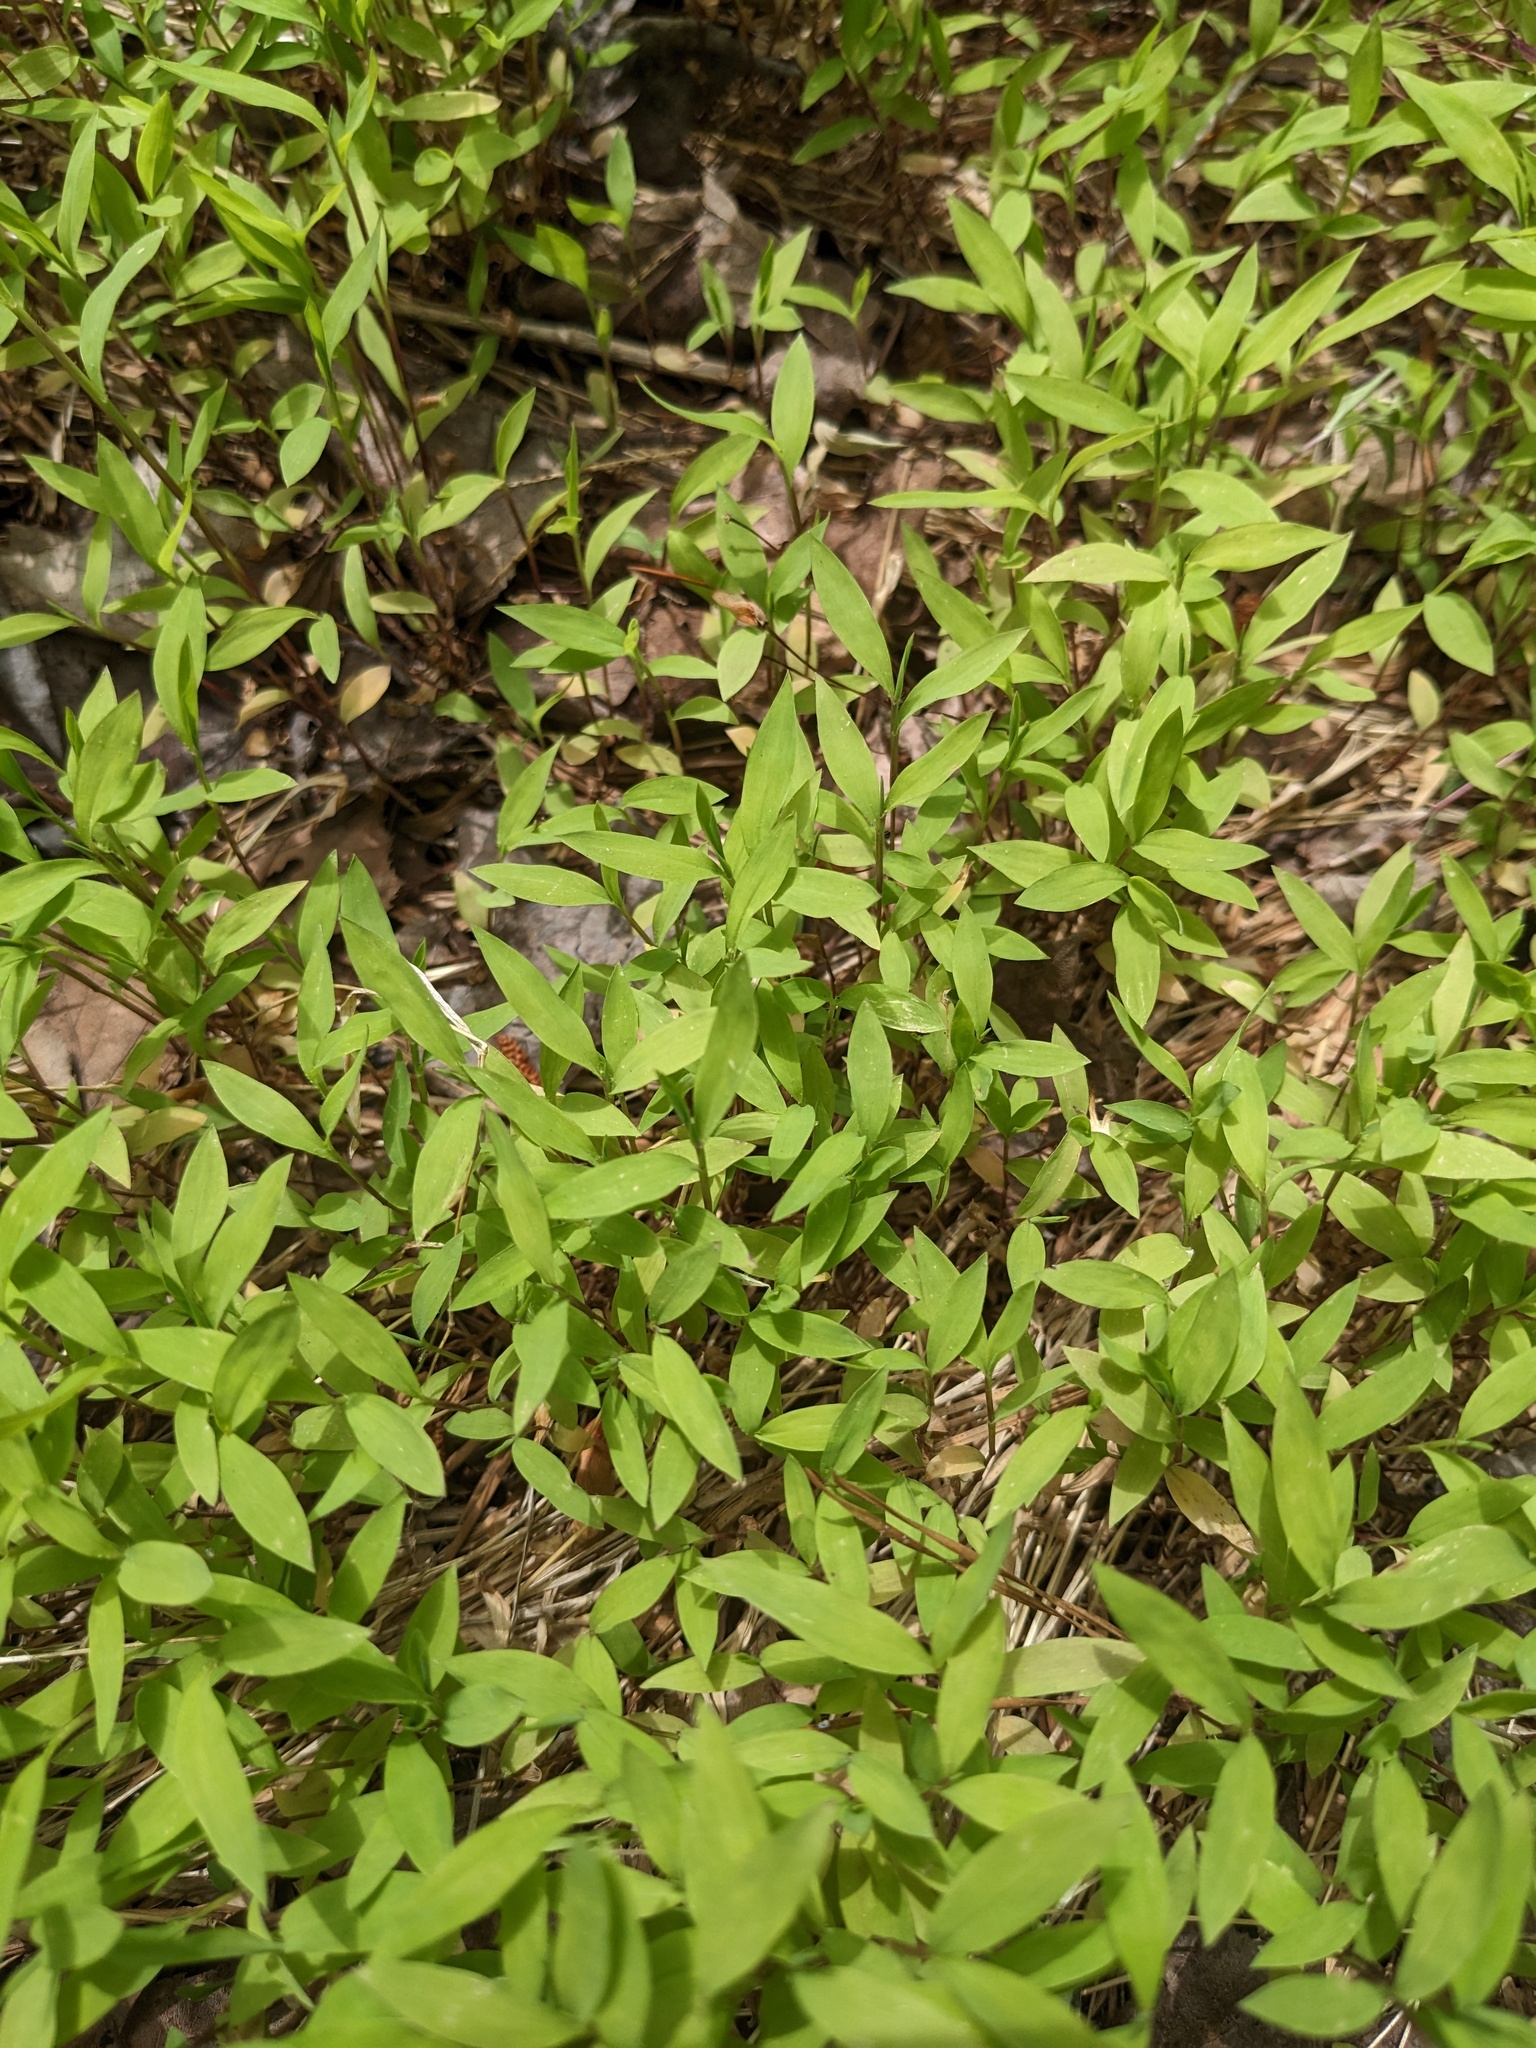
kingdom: Plantae
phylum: Tracheophyta
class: Liliopsida
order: Poales
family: Poaceae
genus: Microstegium
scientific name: Microstegium vimineum
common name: Japanese stiltgrass
